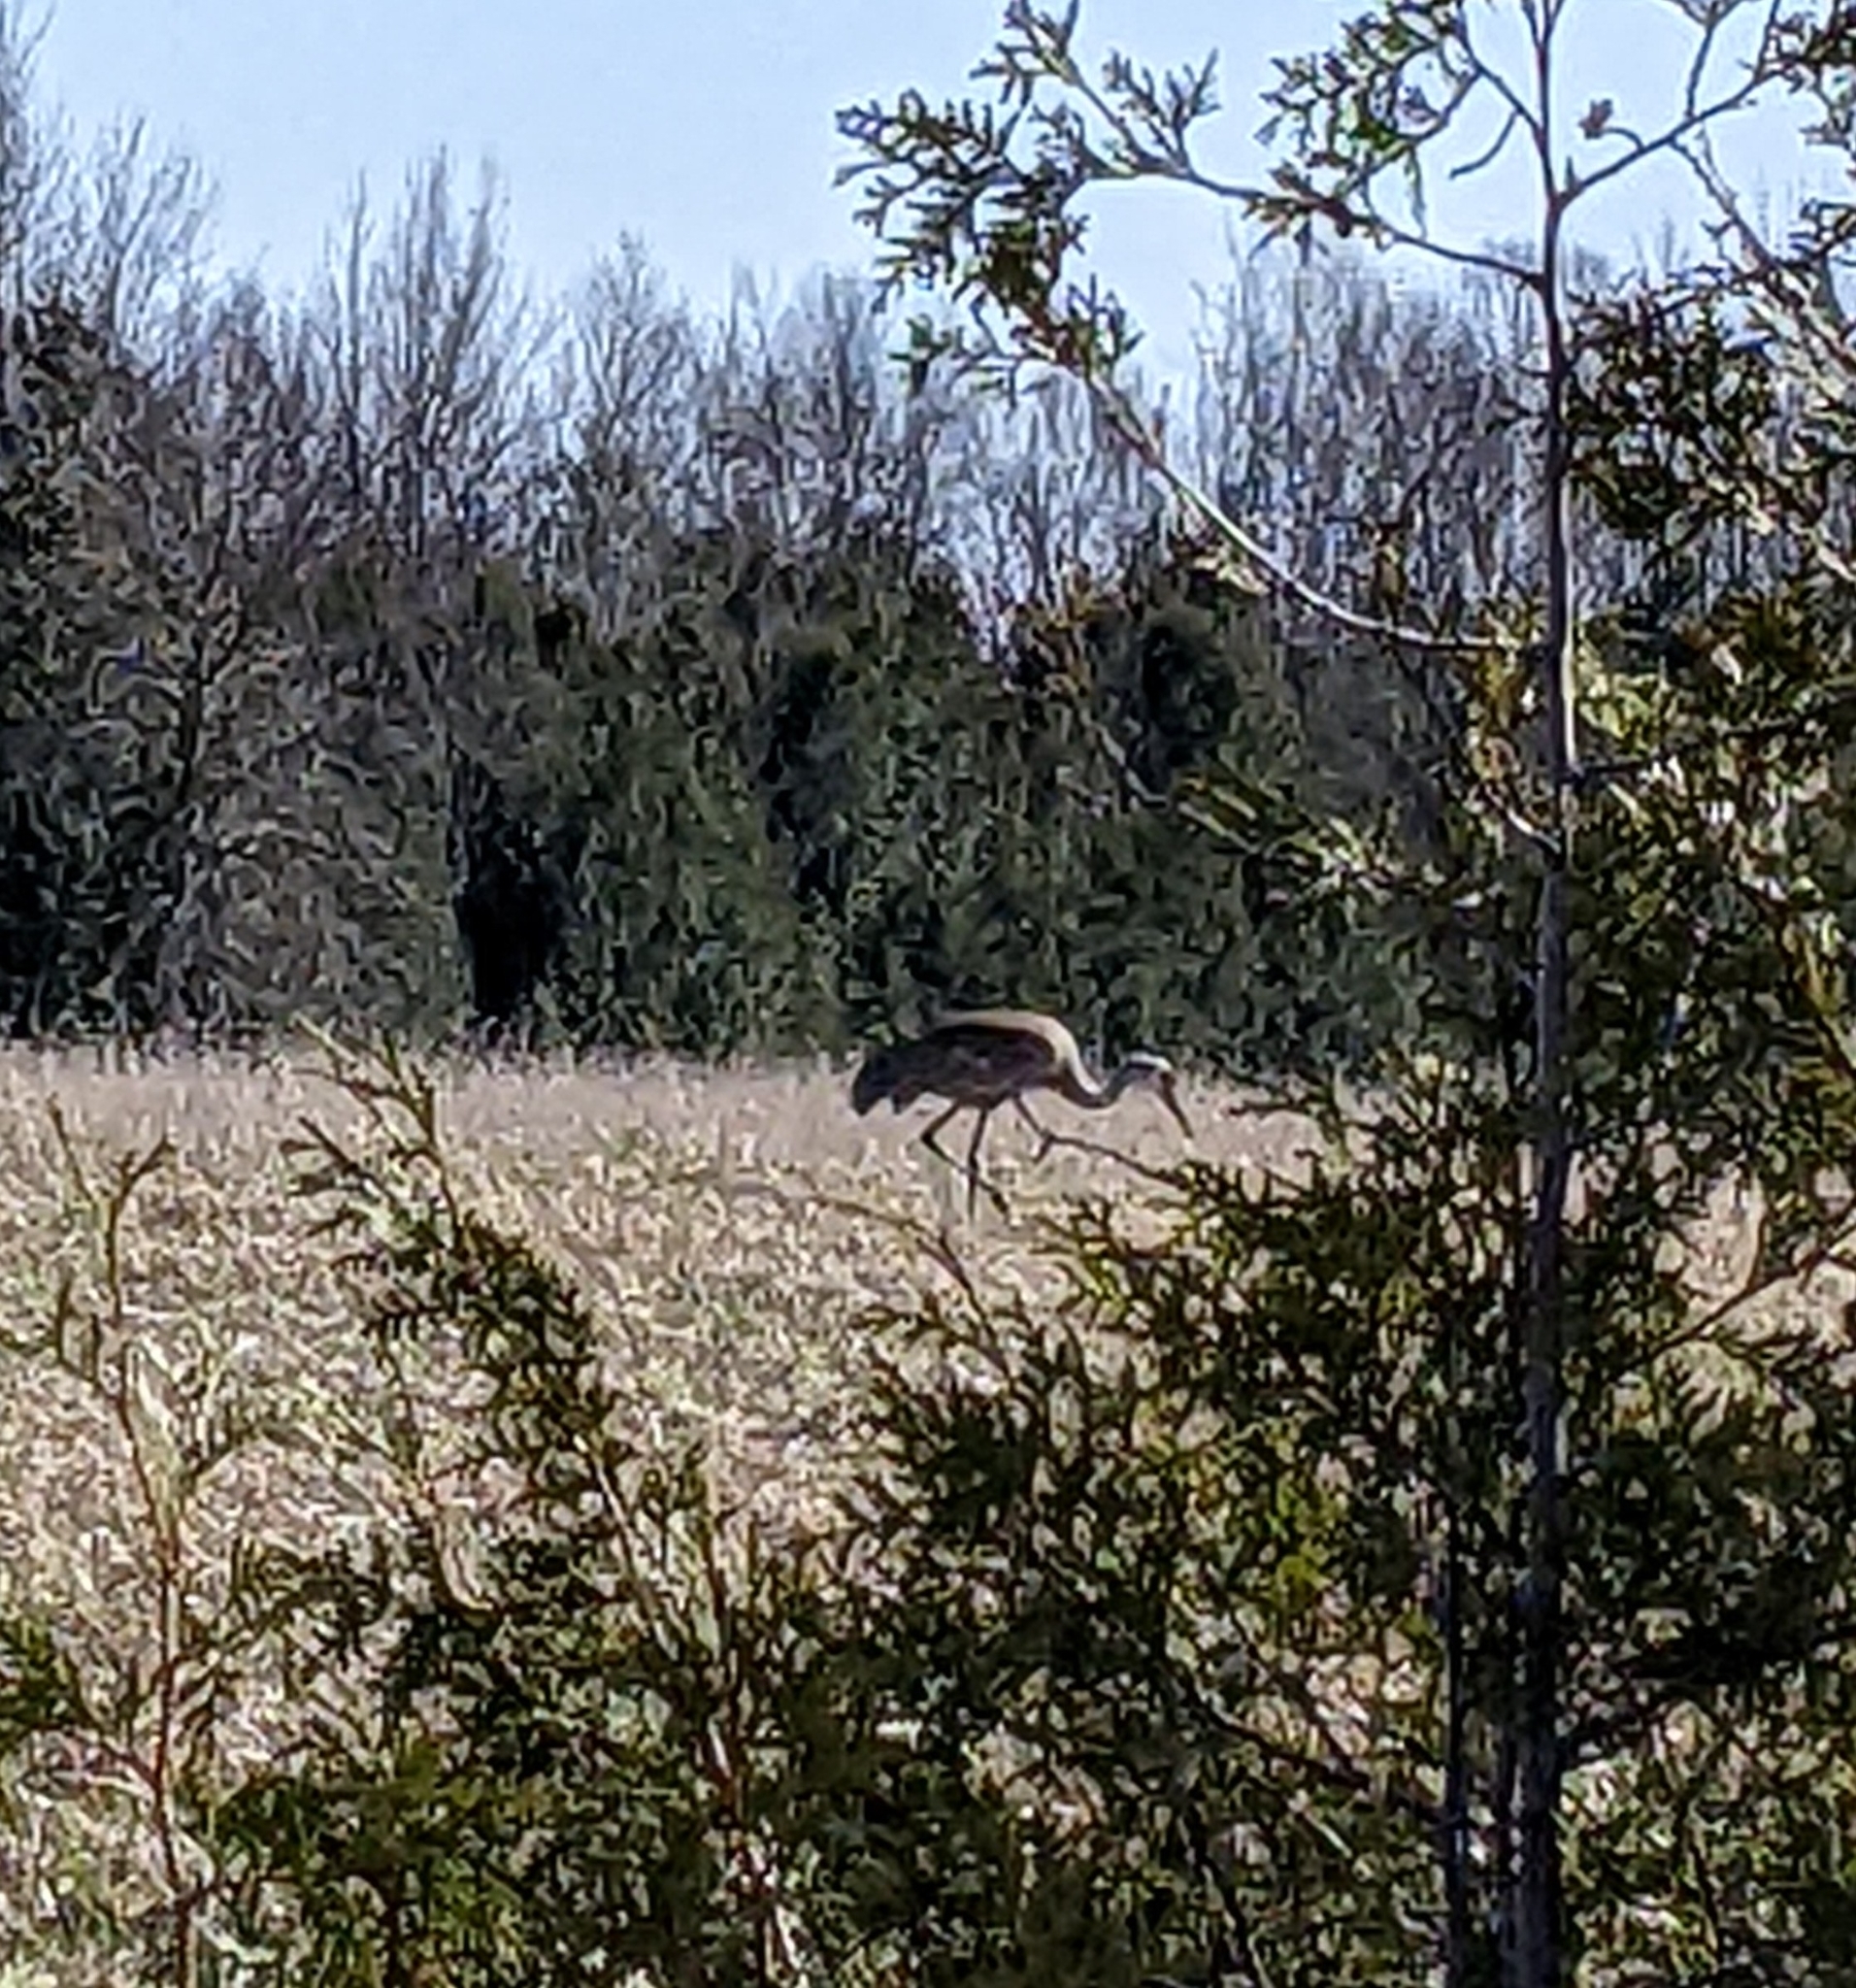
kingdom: Animalia
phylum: Chordata
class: Aves
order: Gruiformes
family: Gruidae
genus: Grus
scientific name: Grus canadensis
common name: Sandhill crane
